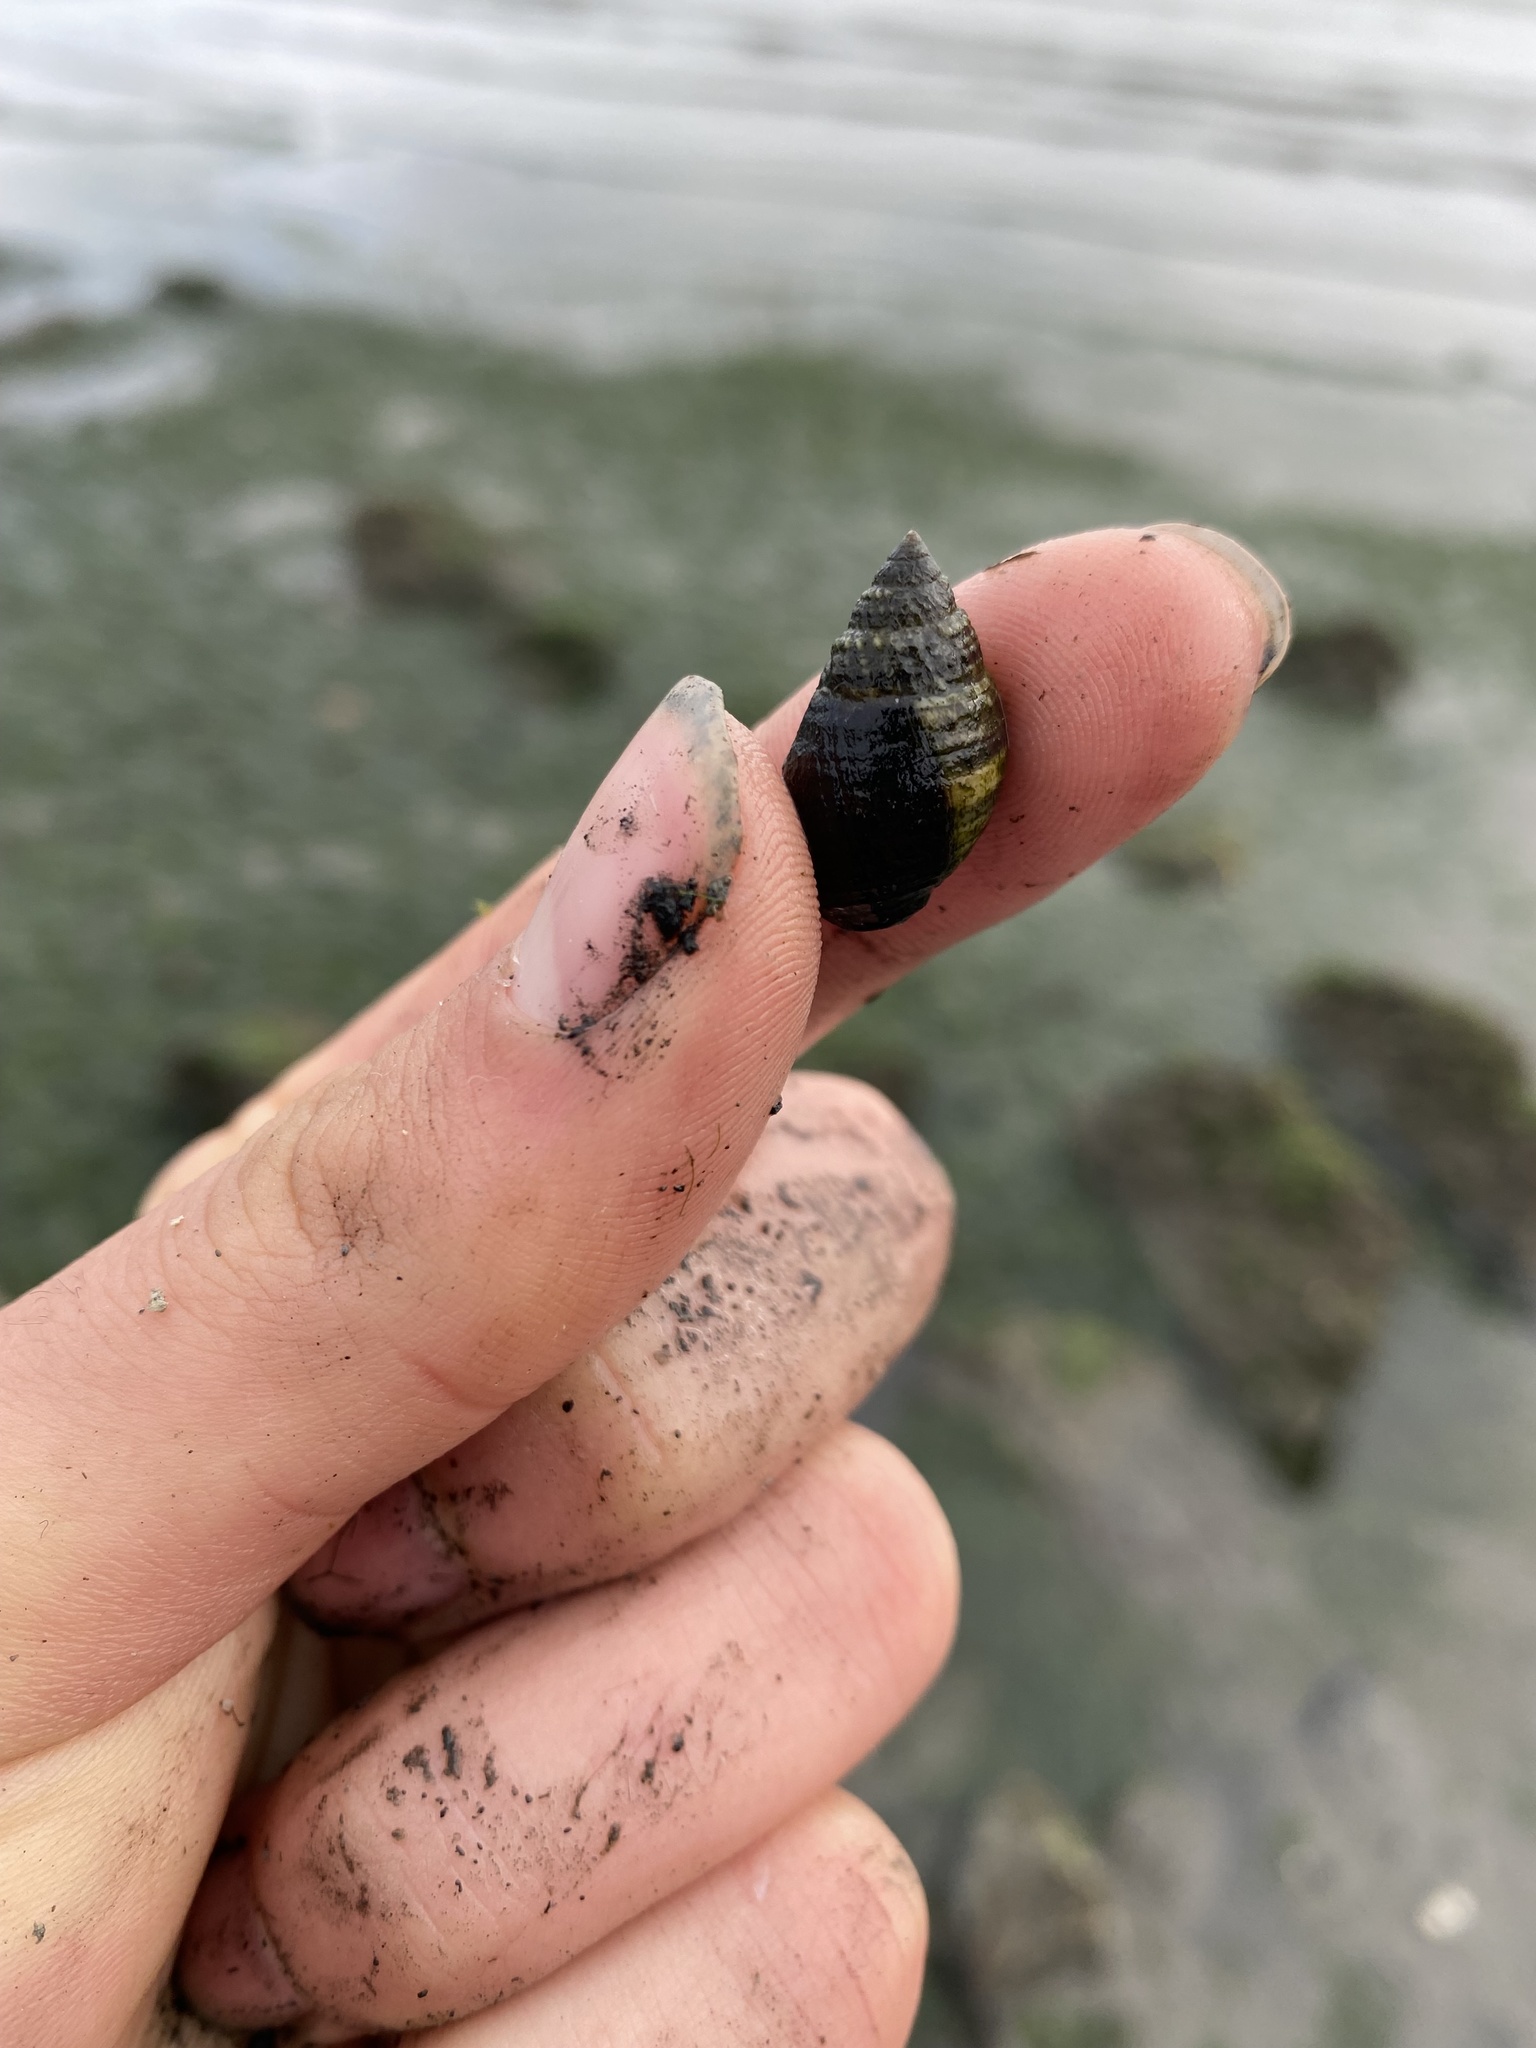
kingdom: Animalia
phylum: Mollusca
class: Gastropoda
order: Neogastropoda
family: Nassariidae
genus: Ilyanassa
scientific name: Ilyanassa obsoleta
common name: Eastern mudsnail
